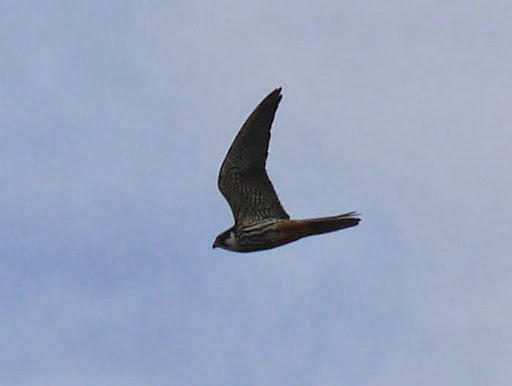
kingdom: Animalia
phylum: Chordata
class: Aves
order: Falconiformes
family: Falconidae
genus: Falco
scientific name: Falco subbuteo
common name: Eurasian hobby
